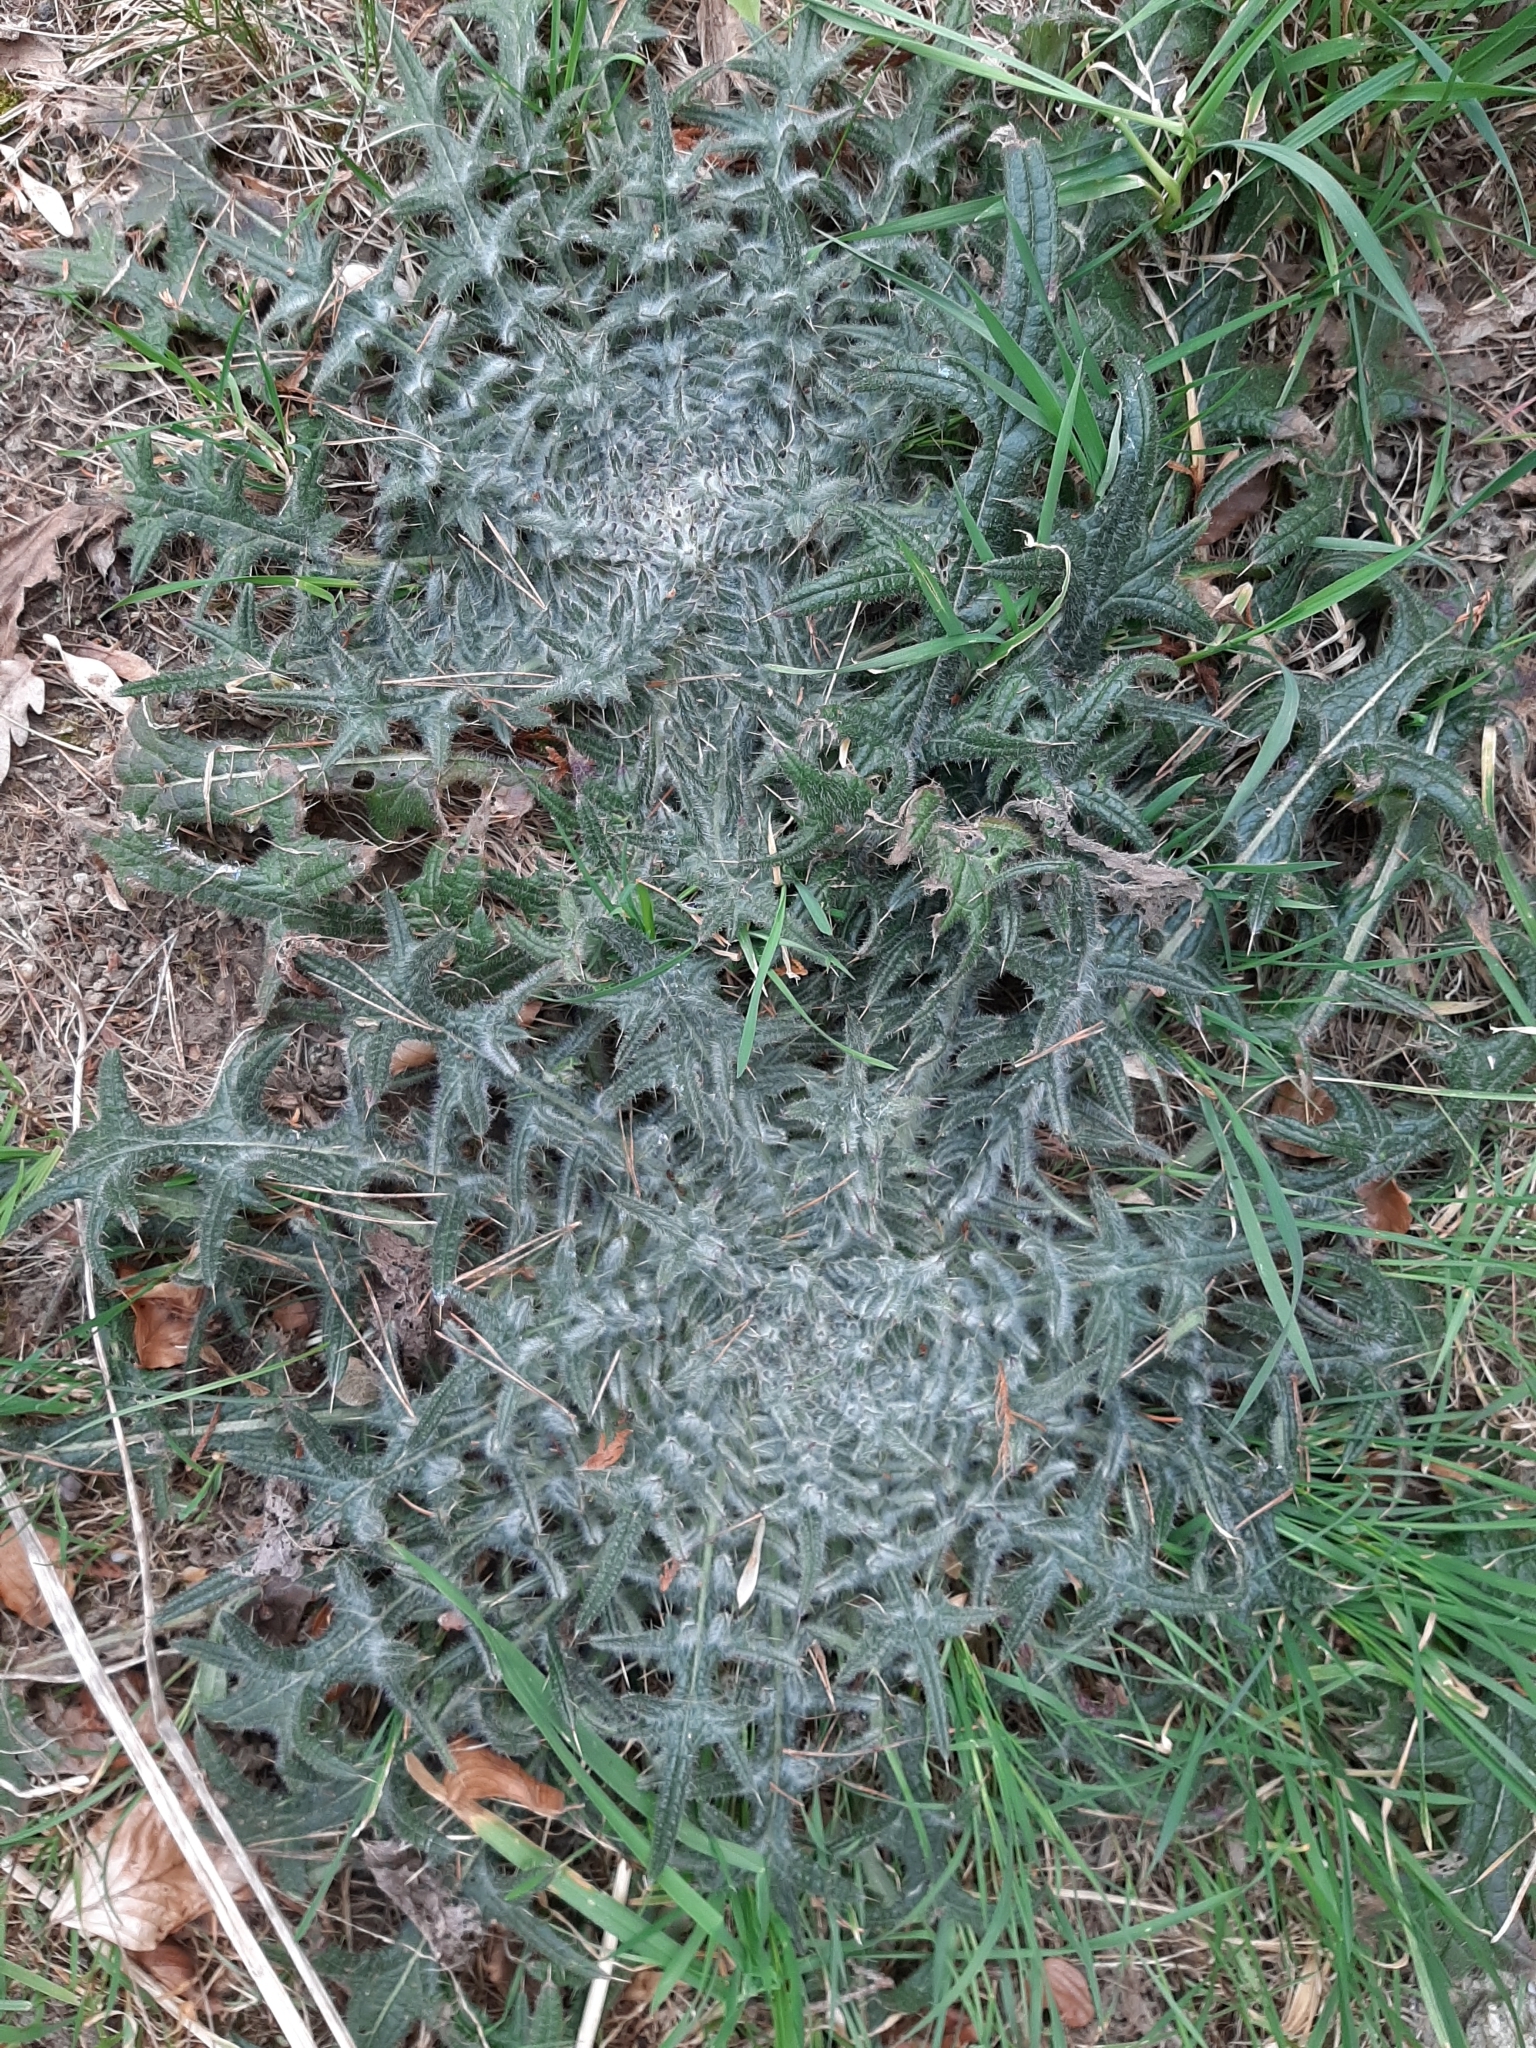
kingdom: Plantae
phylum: Tracheophyta
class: Magnoliopsida
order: Asterales
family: Asteraceae
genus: Cirsium
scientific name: Cirsium vulgare
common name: Bull thistle
